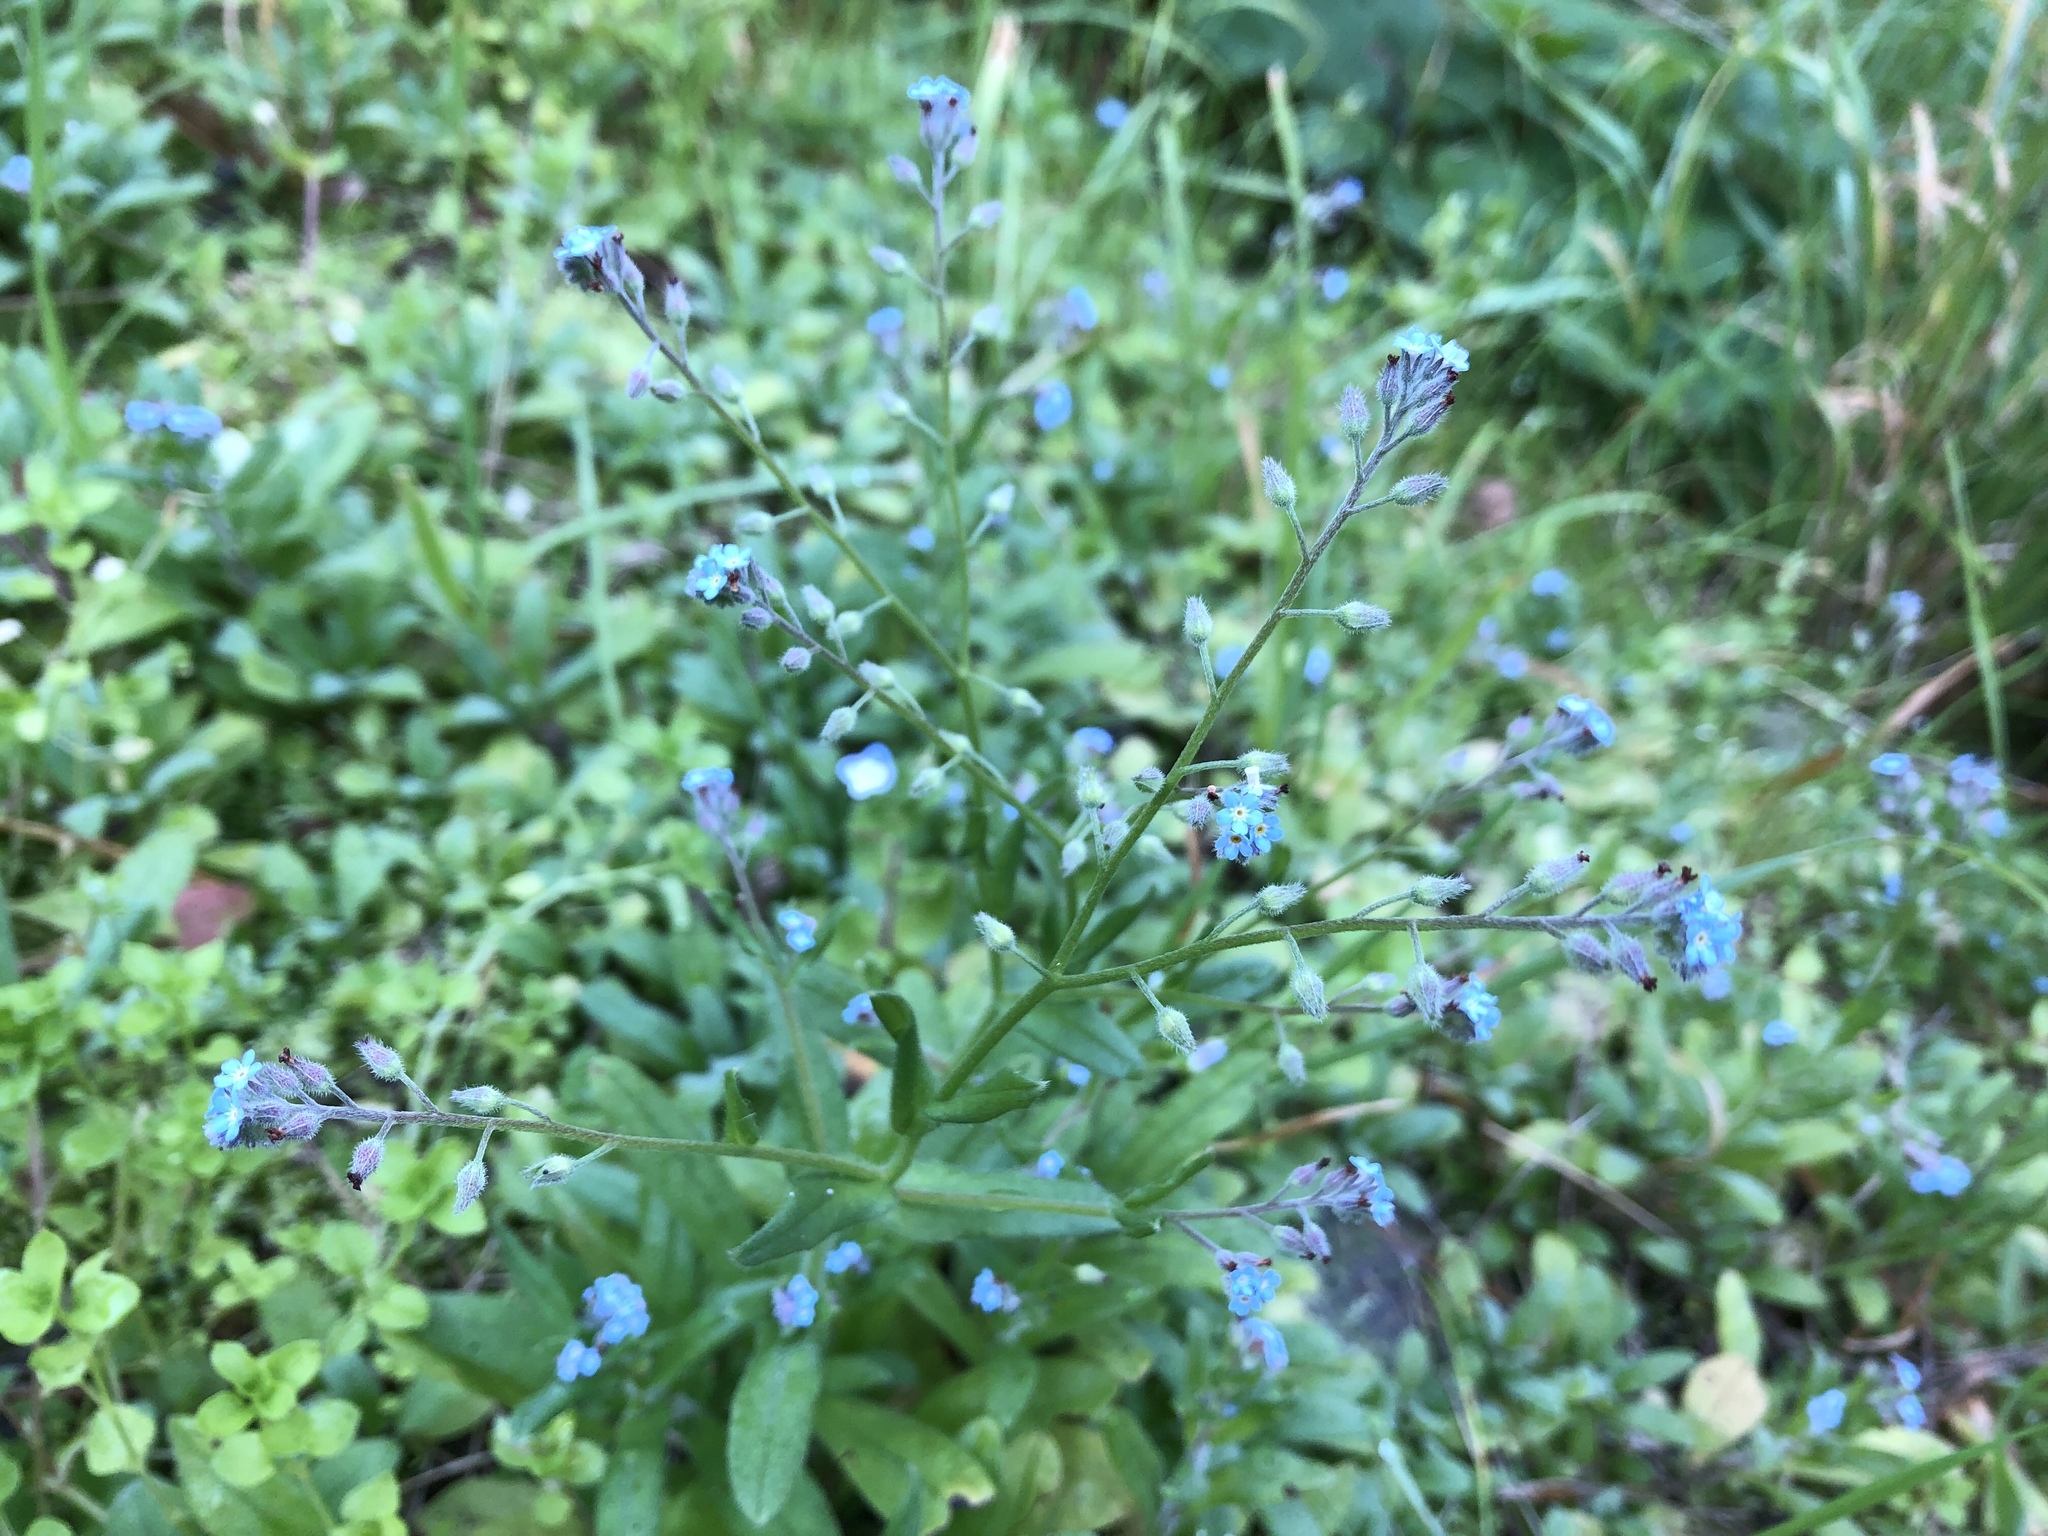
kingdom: Plantae
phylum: Tracheophyta
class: Magnoliopsida
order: Boraginales
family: Boraginaceae
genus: Myosotis
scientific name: Myosotis arvensis
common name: Field forget-me-not
